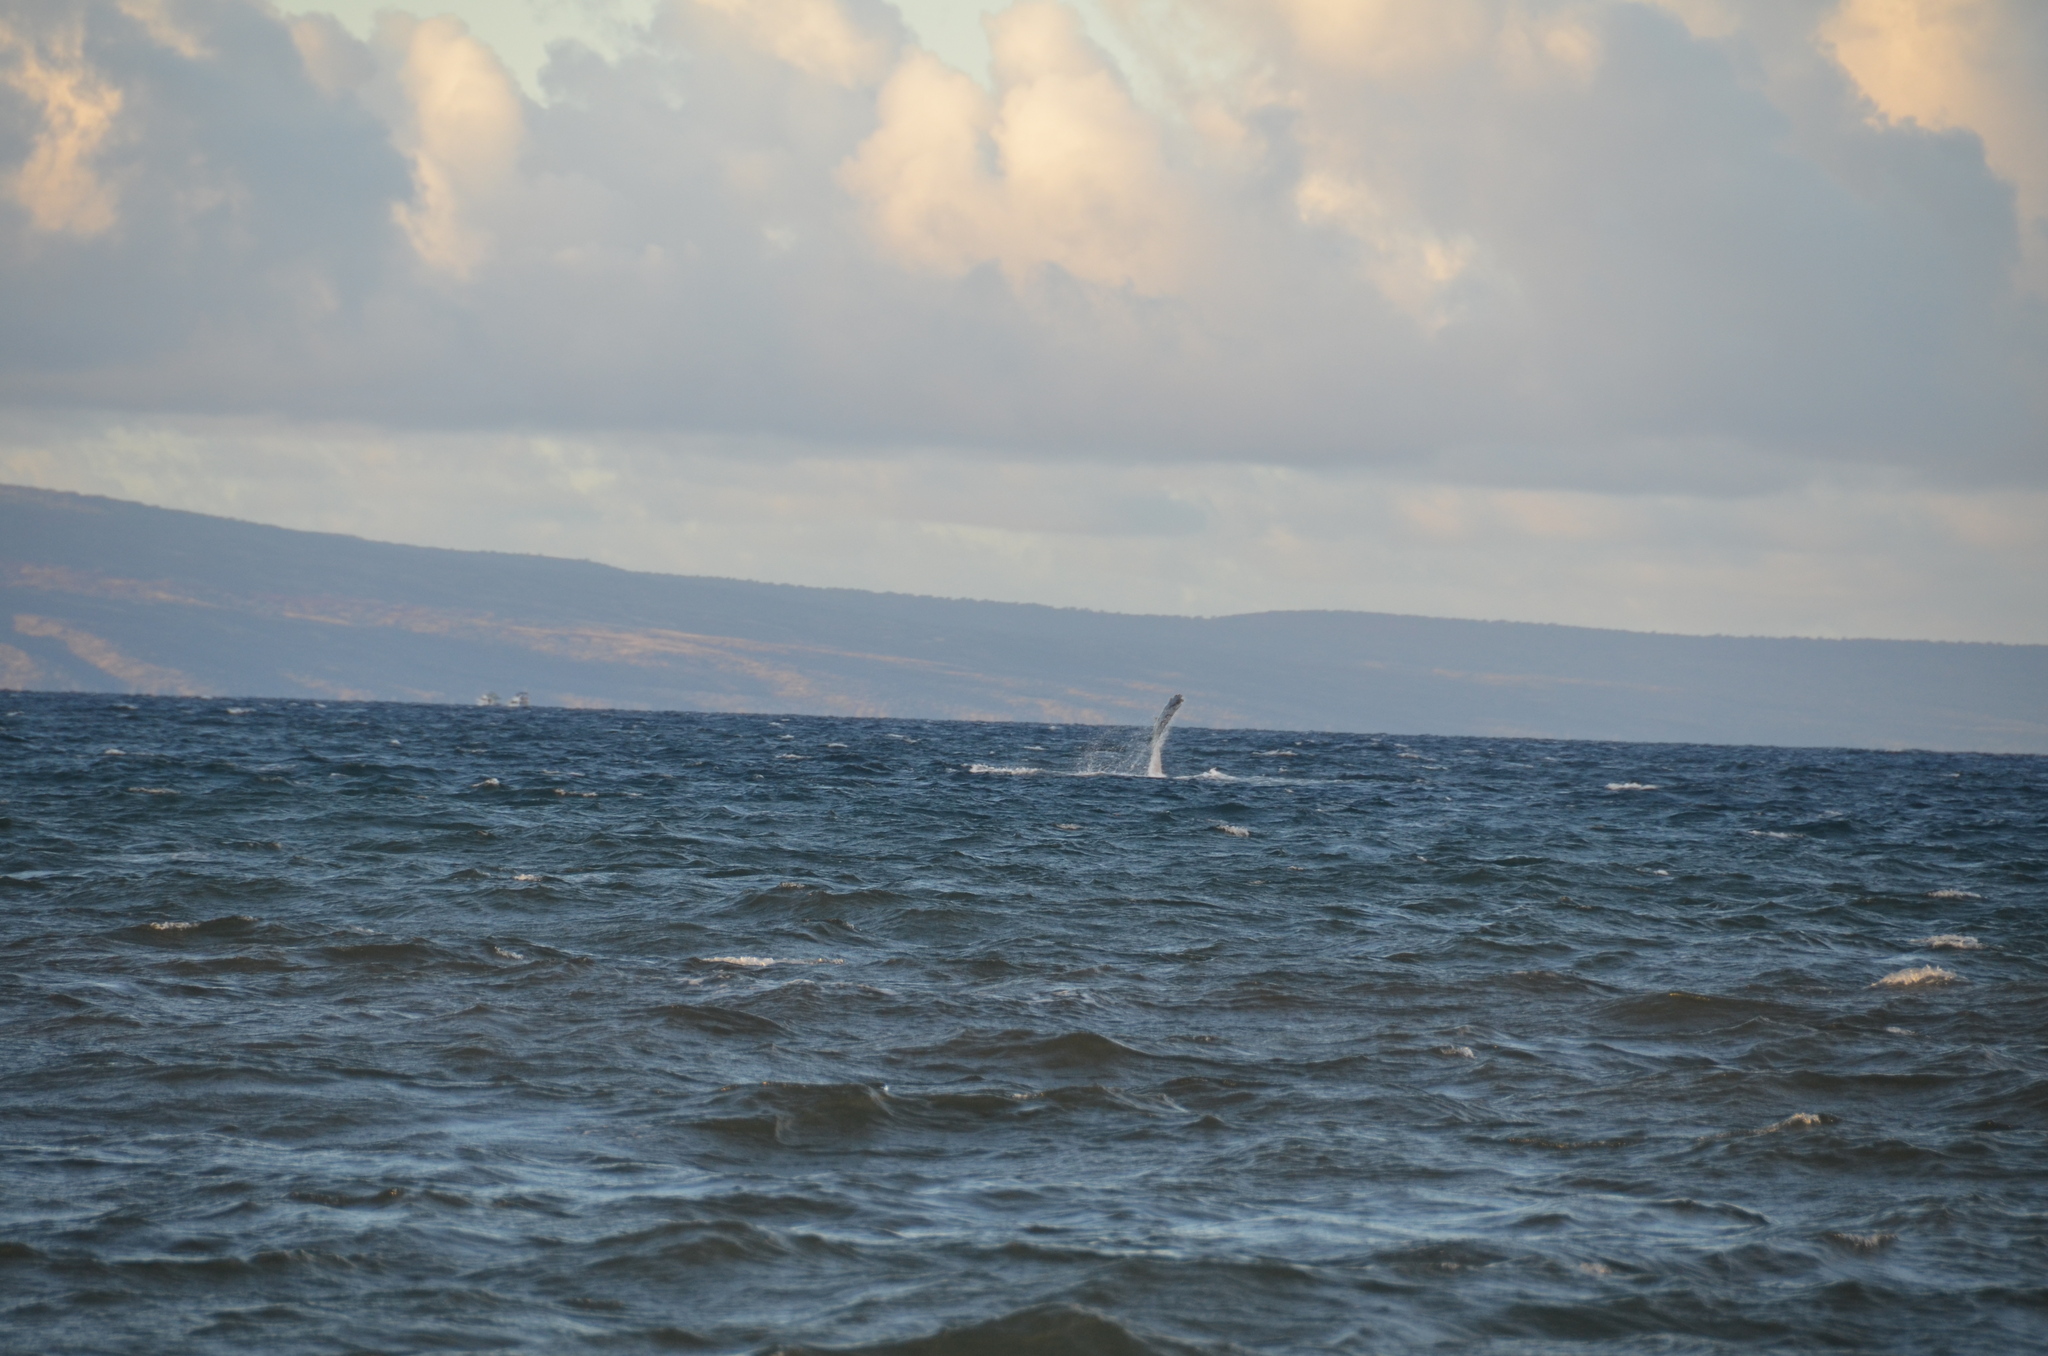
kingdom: Animalia
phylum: Chordata
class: Mammalia
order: Cetacea
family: Balaenopteridae
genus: Megaptera
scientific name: Megaptera novaeangliae
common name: Humpback whale
